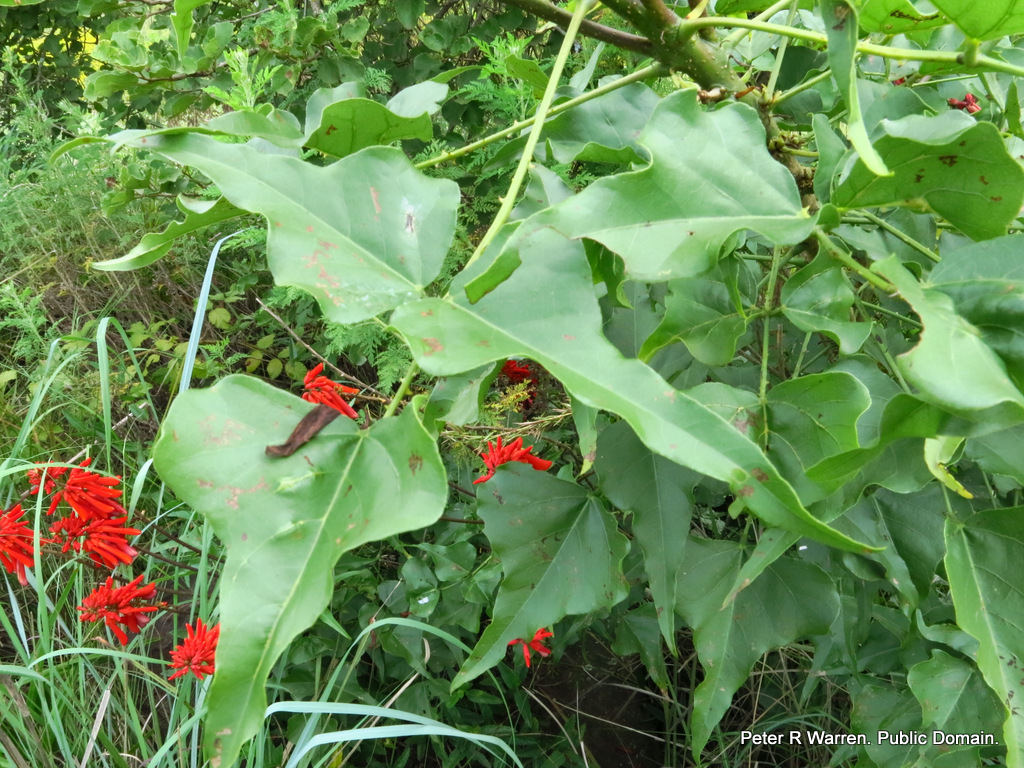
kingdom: Plantae
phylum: Tracheophyta
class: Magnoliopsida
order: Fabales
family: Fabaceae
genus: Erythrina
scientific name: Erythrina humeana
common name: Dwarf coral tree
